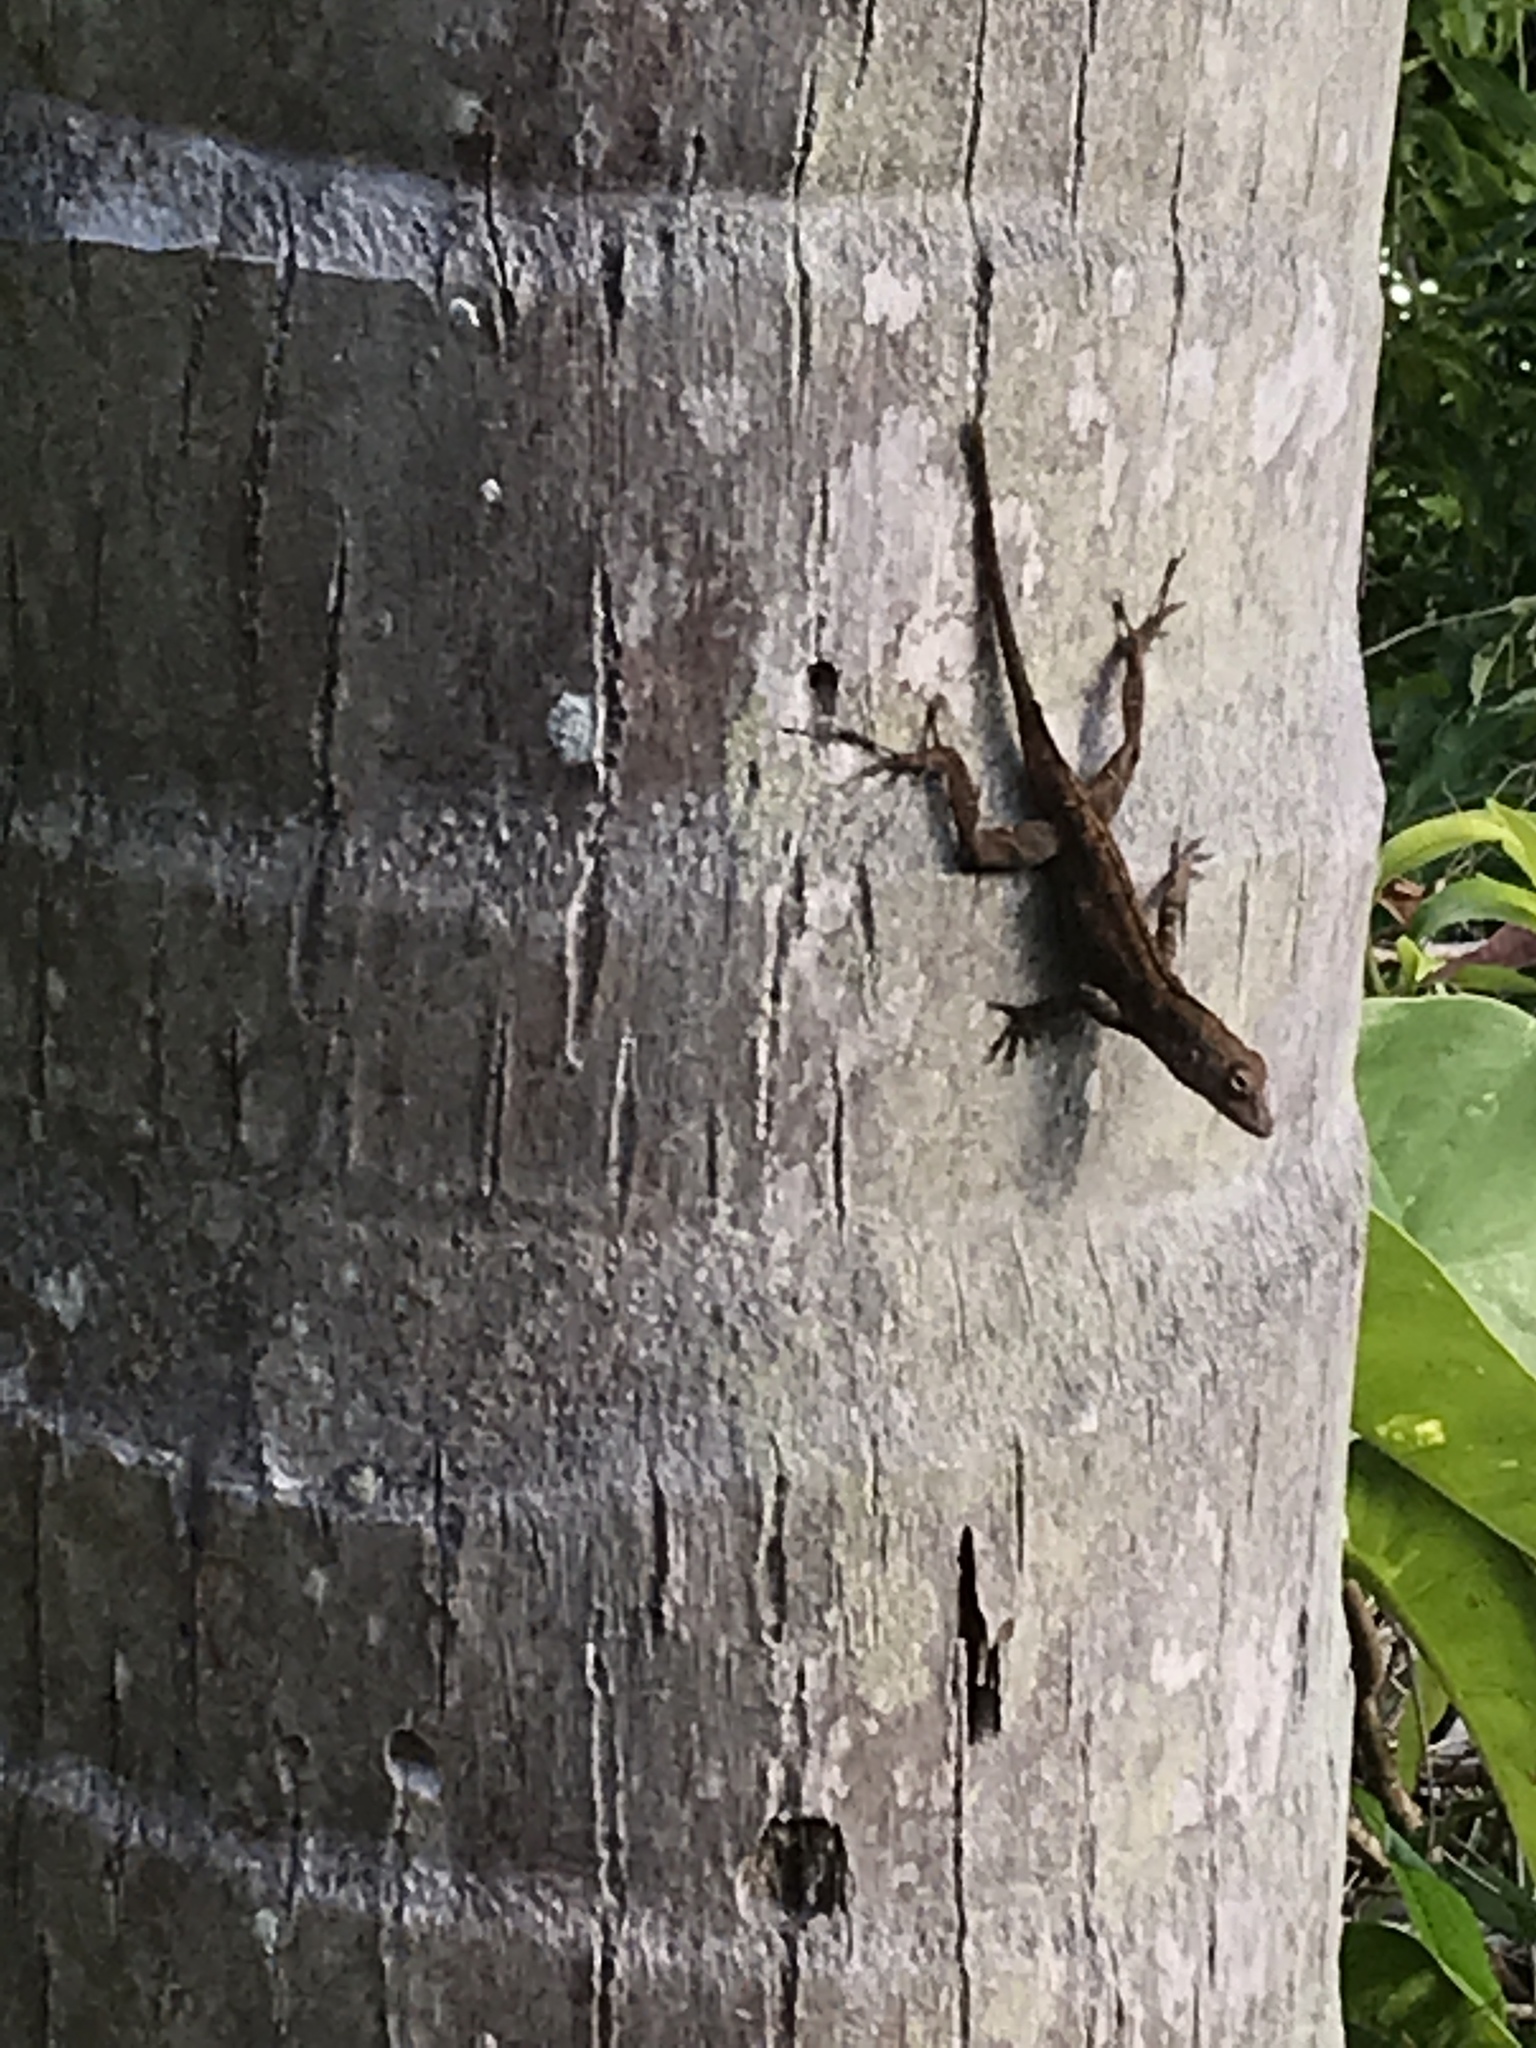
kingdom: Animalia
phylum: Chordata
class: Squamata
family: Dactyloidae
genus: Anolis
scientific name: Anolis cristatellus
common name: Crested anole
